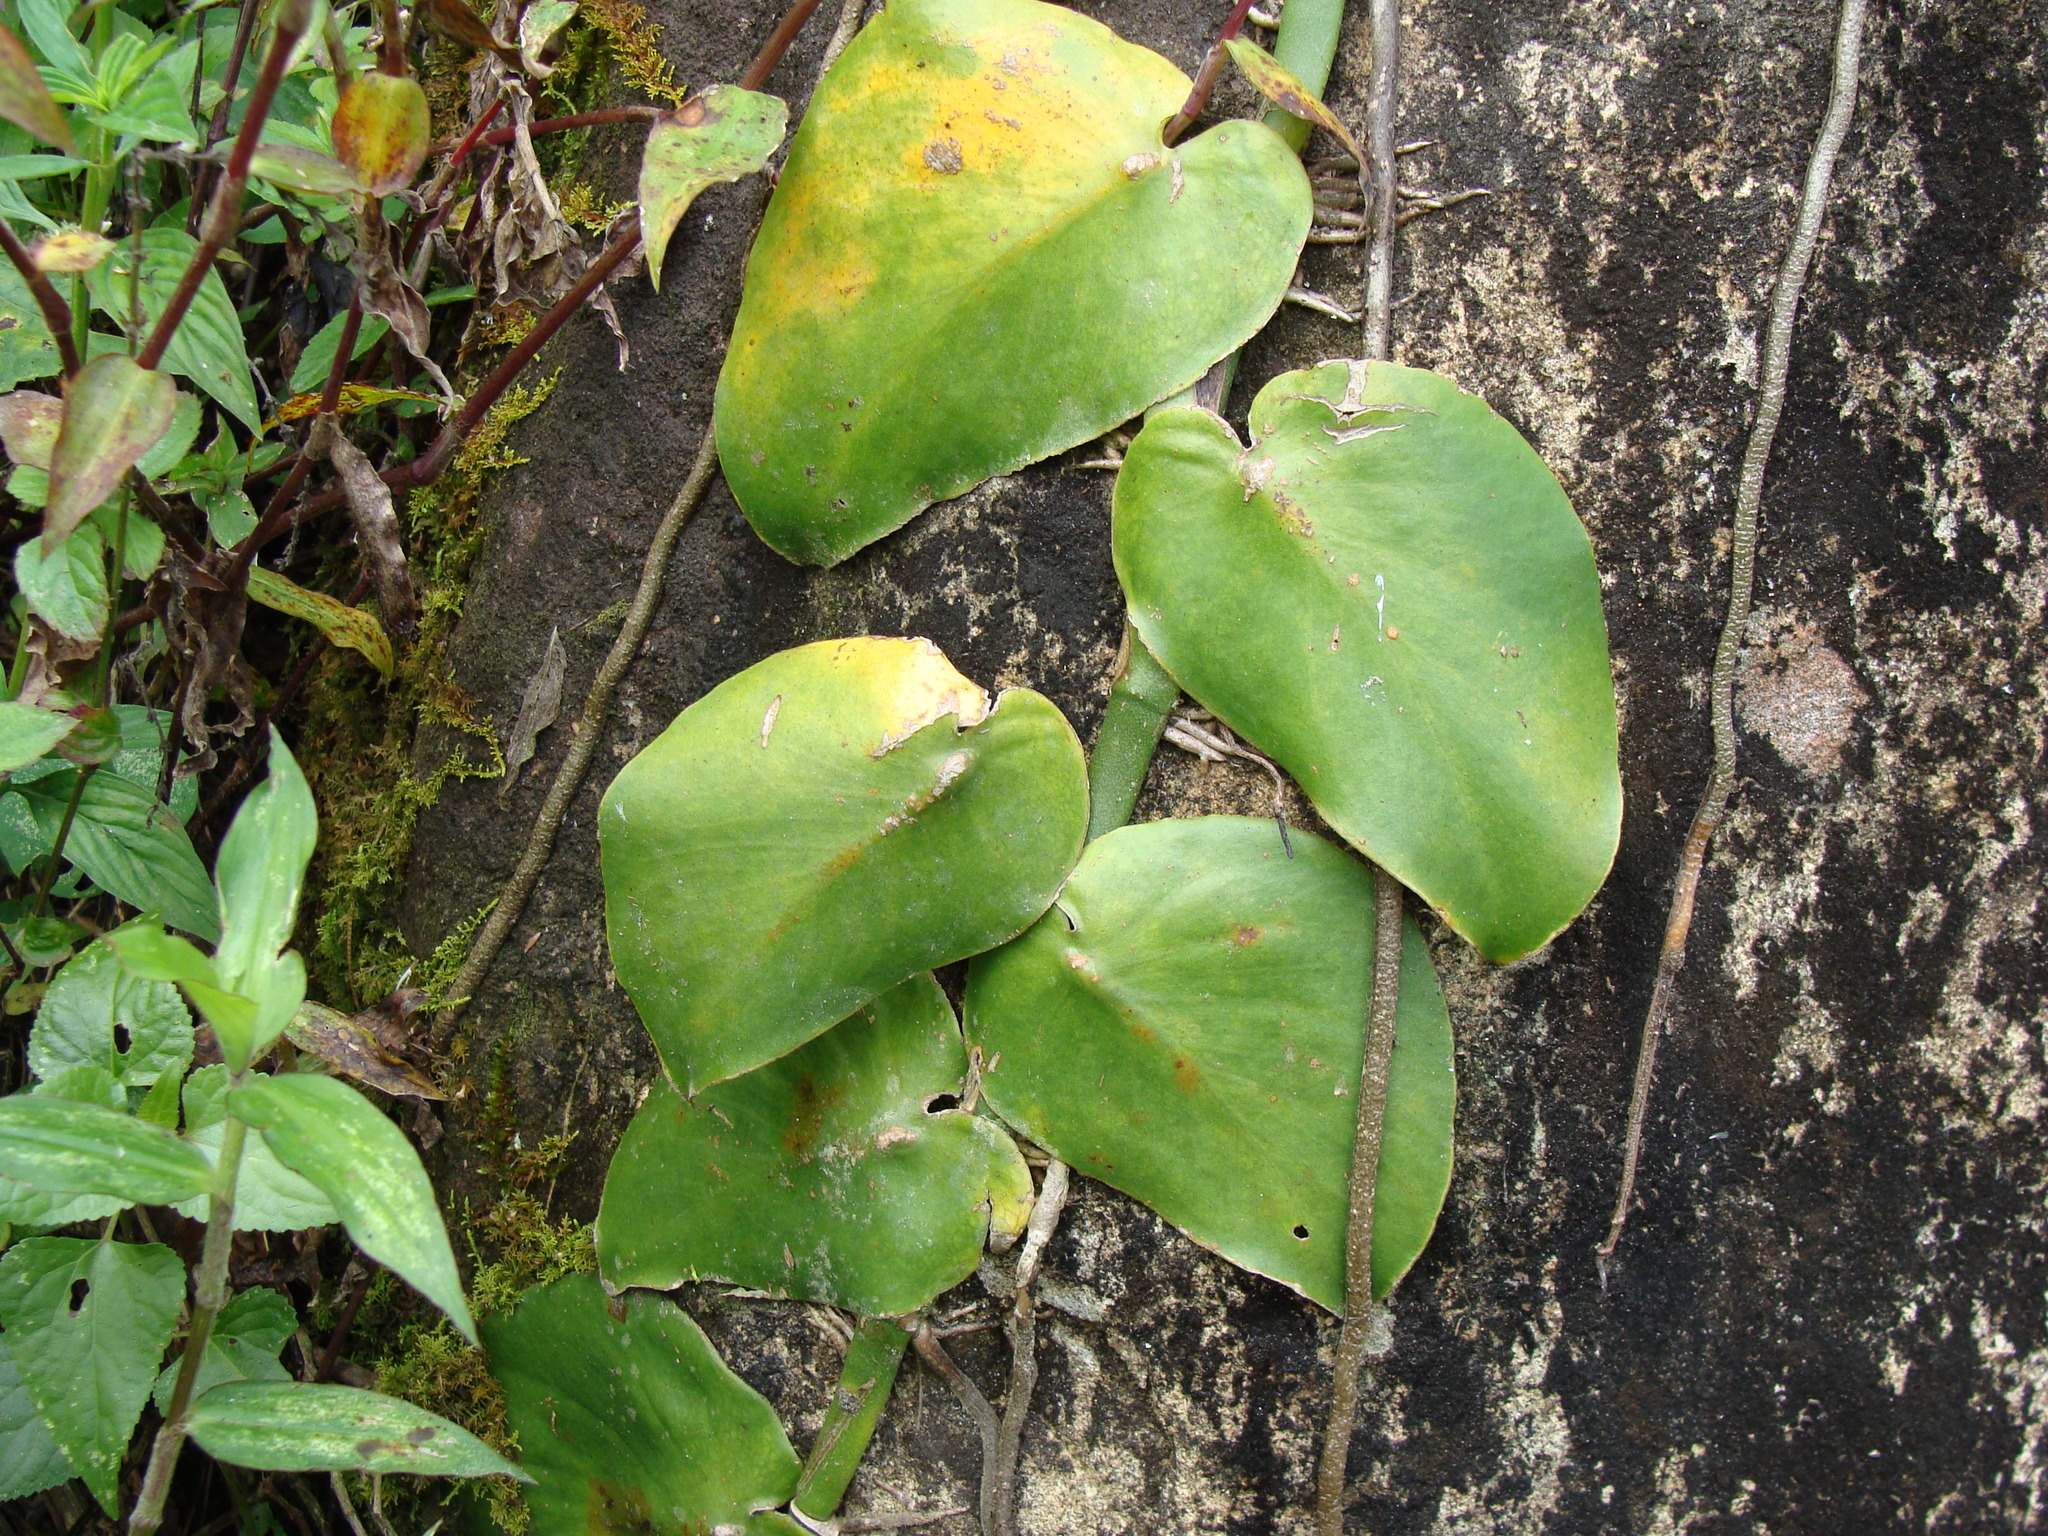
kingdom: Plantae
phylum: Tracheophyta
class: Liliopsida
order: Alismatales
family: Araceae
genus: Monstera
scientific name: Monstera acuminata
